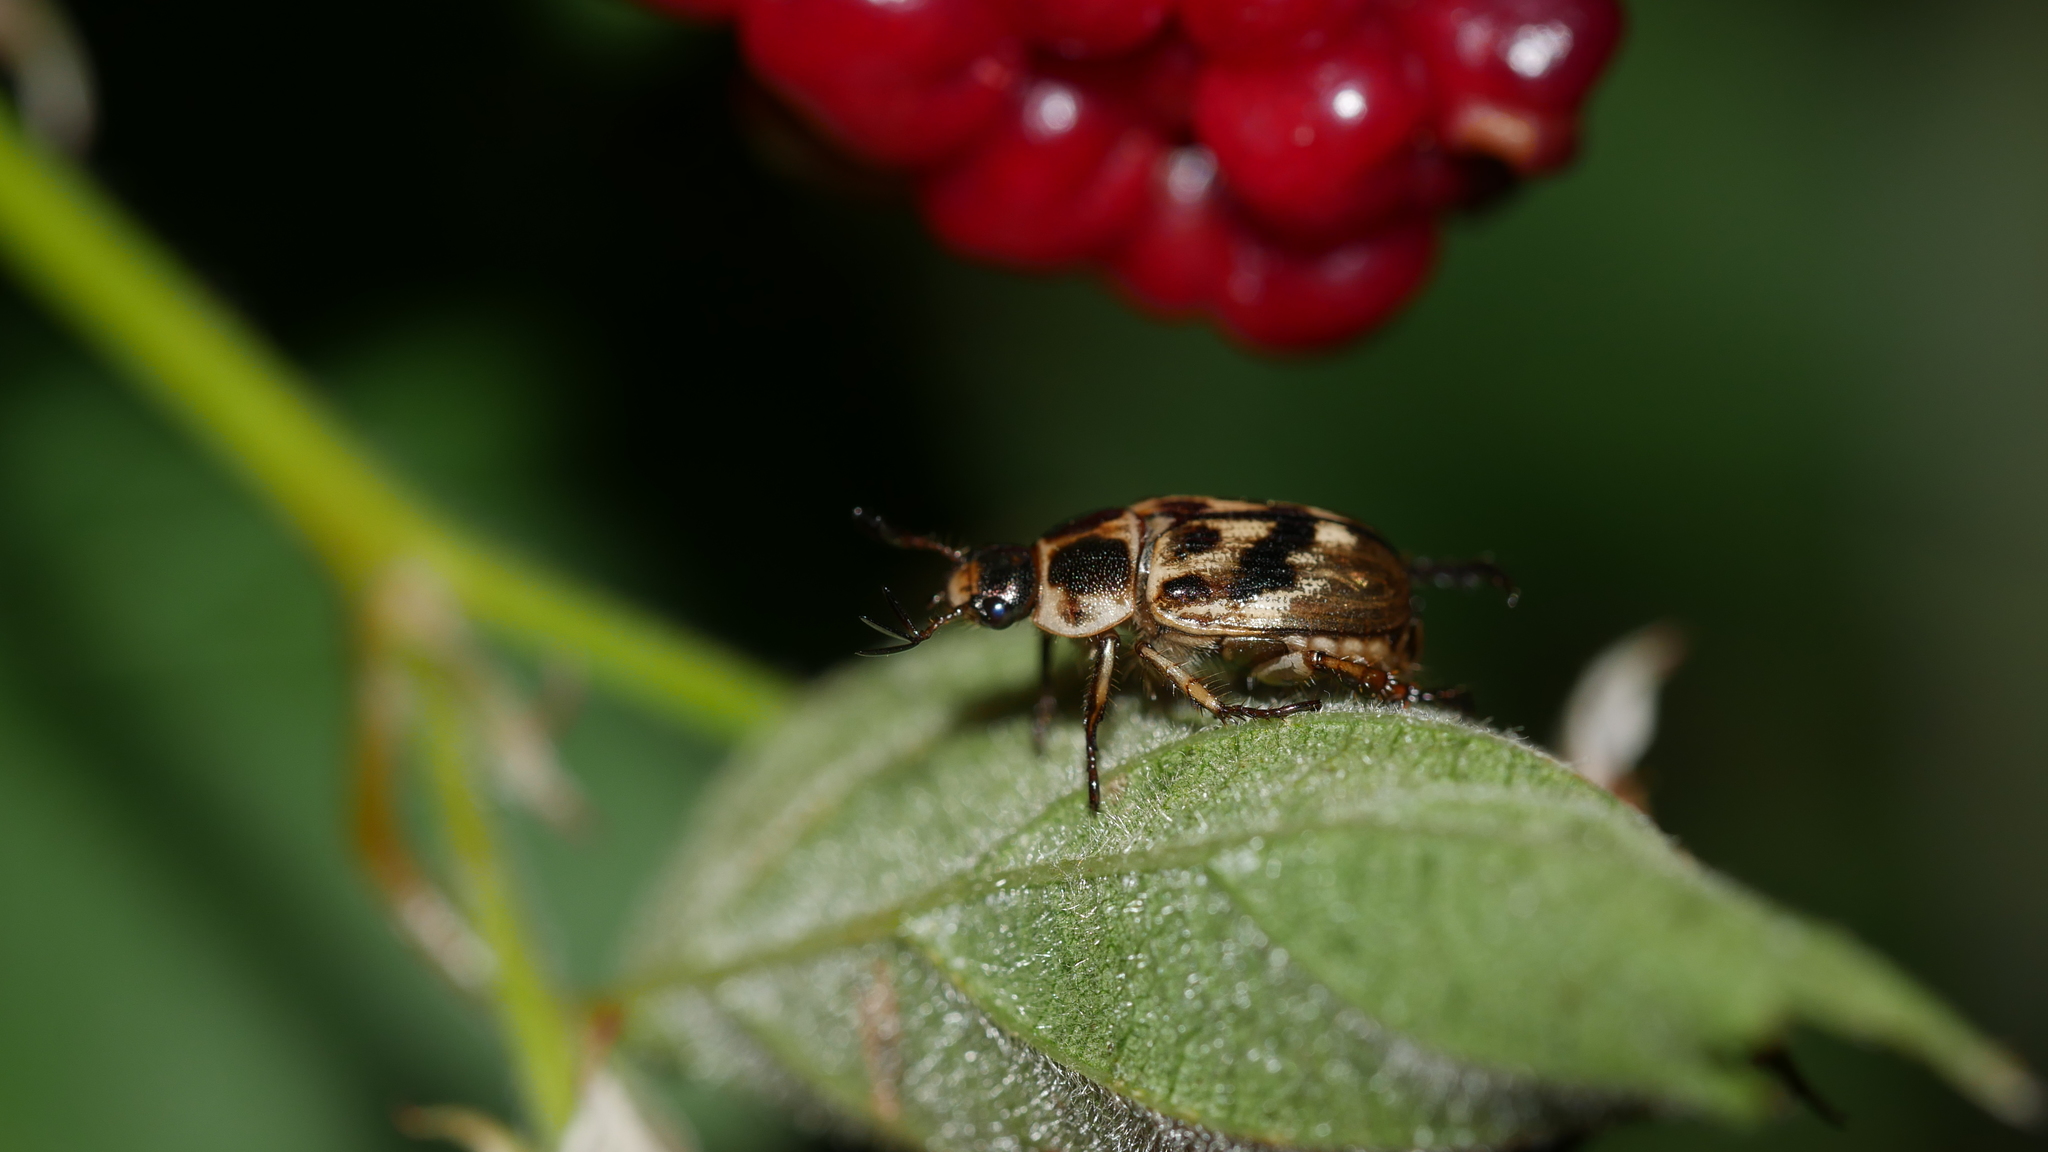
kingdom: Animalia
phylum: Arthropoda
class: Insecta
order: Coleoptera
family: Scarabaeidae
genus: Exomala
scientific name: Exomala orientalis
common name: Oriental beetle
